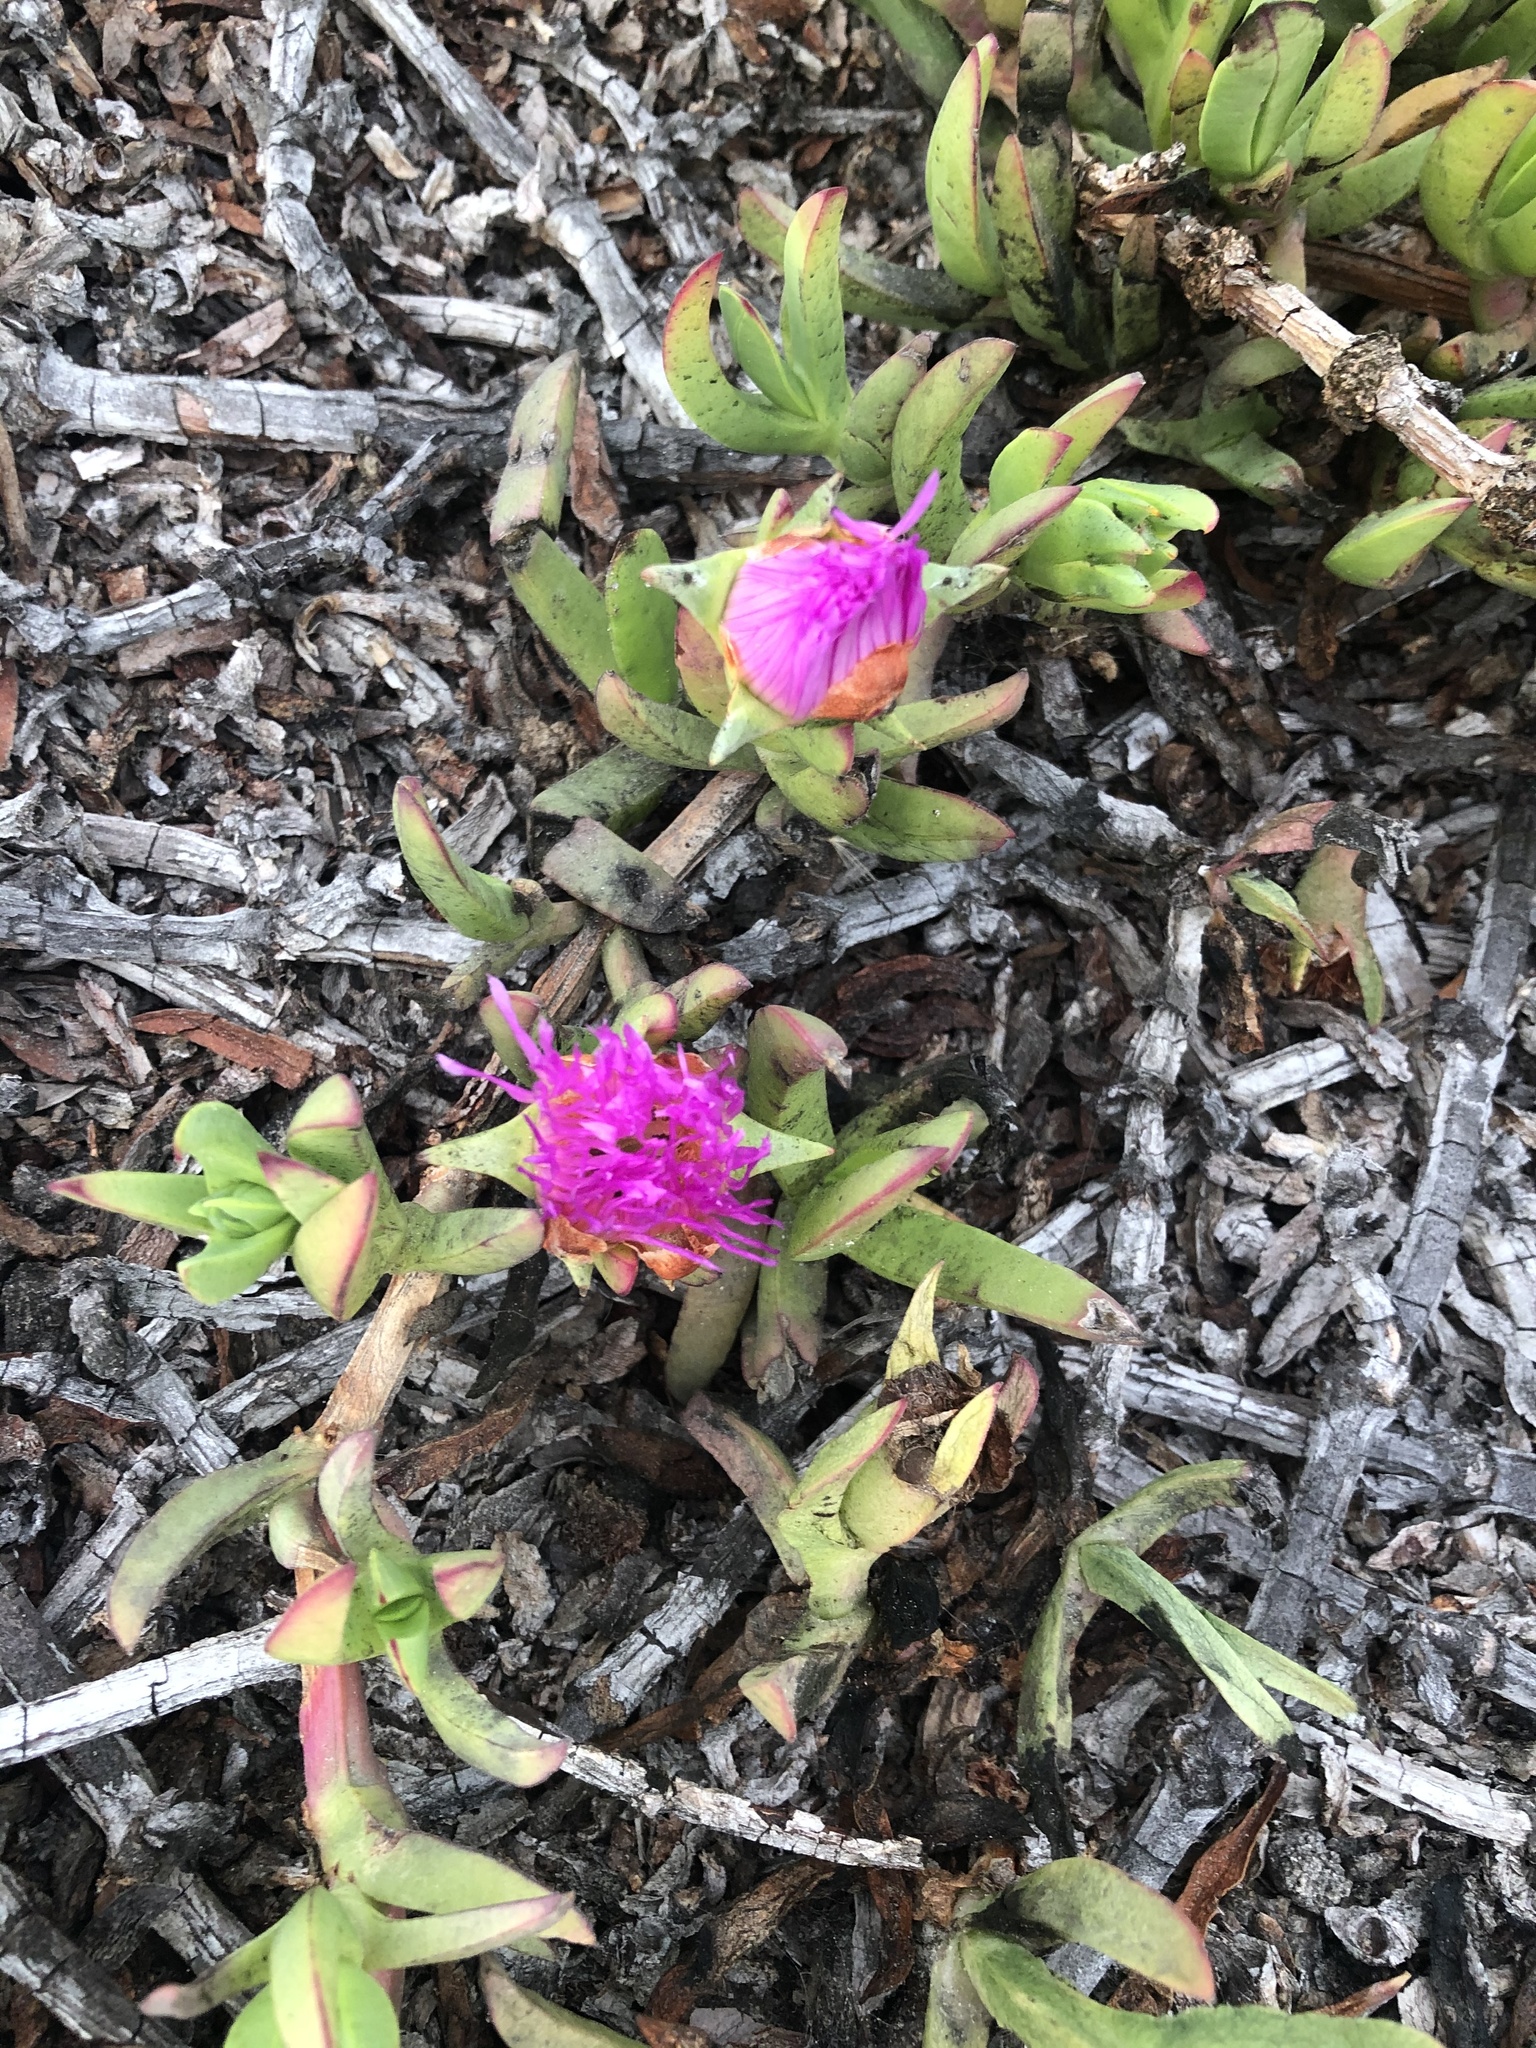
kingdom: Plantae
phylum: Tracheophyta
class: Magnoliopsida
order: Caryophyllales
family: Aizoaceae
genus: Carpobrotus
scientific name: Carpobrotus chilensis
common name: Sea fig
